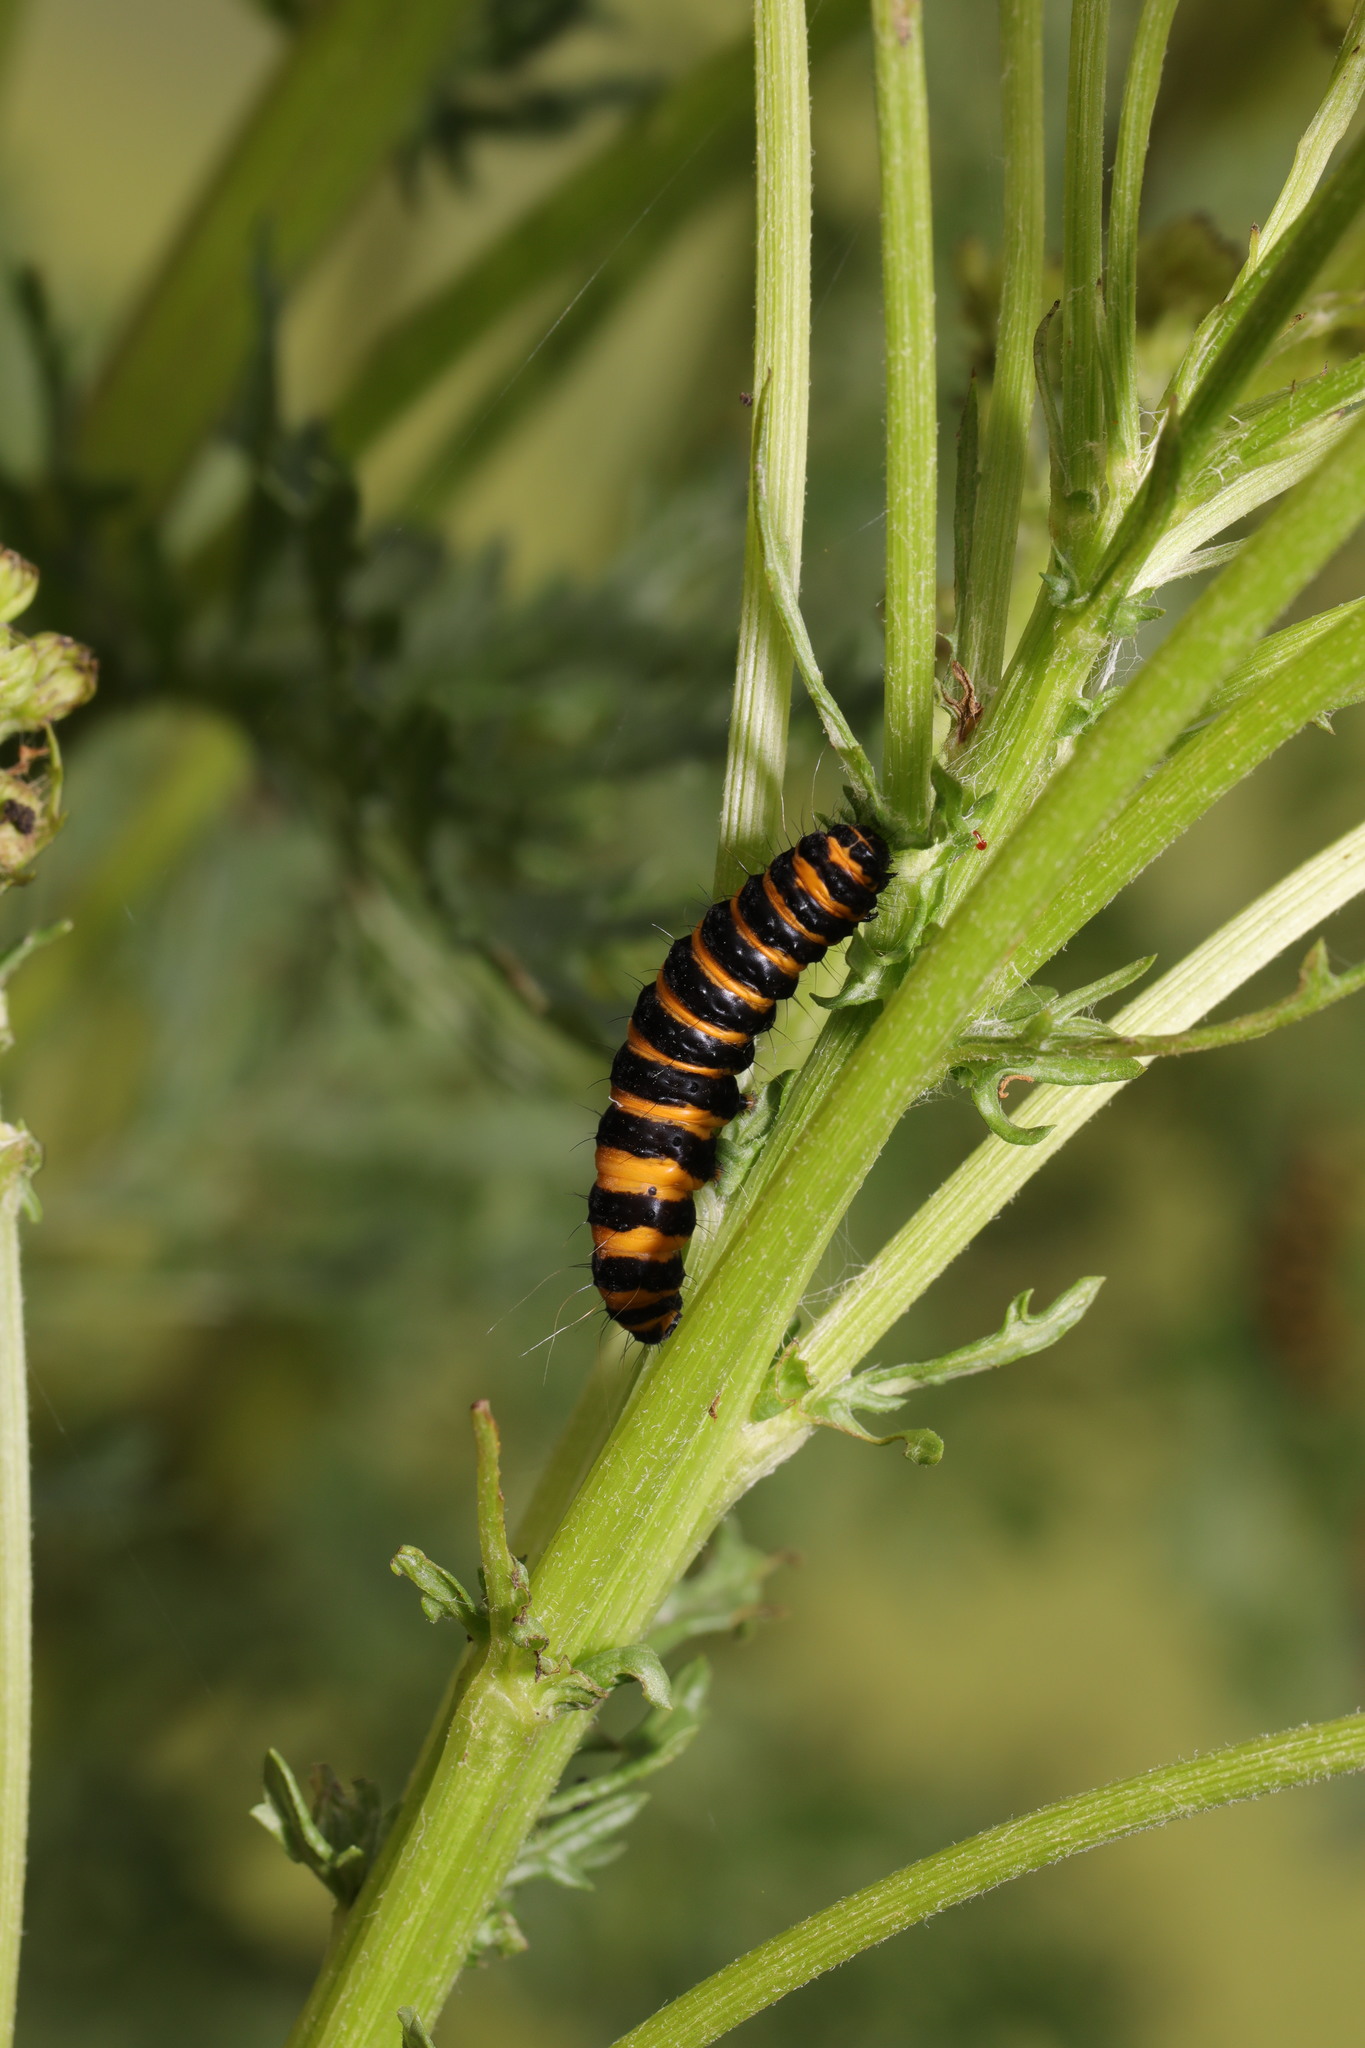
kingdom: Animalia
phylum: Arthropoda
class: Insecta
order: Lepidoptera
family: Erebidae
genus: Tyria
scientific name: Tyria jacobaeae
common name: Cinnabar
